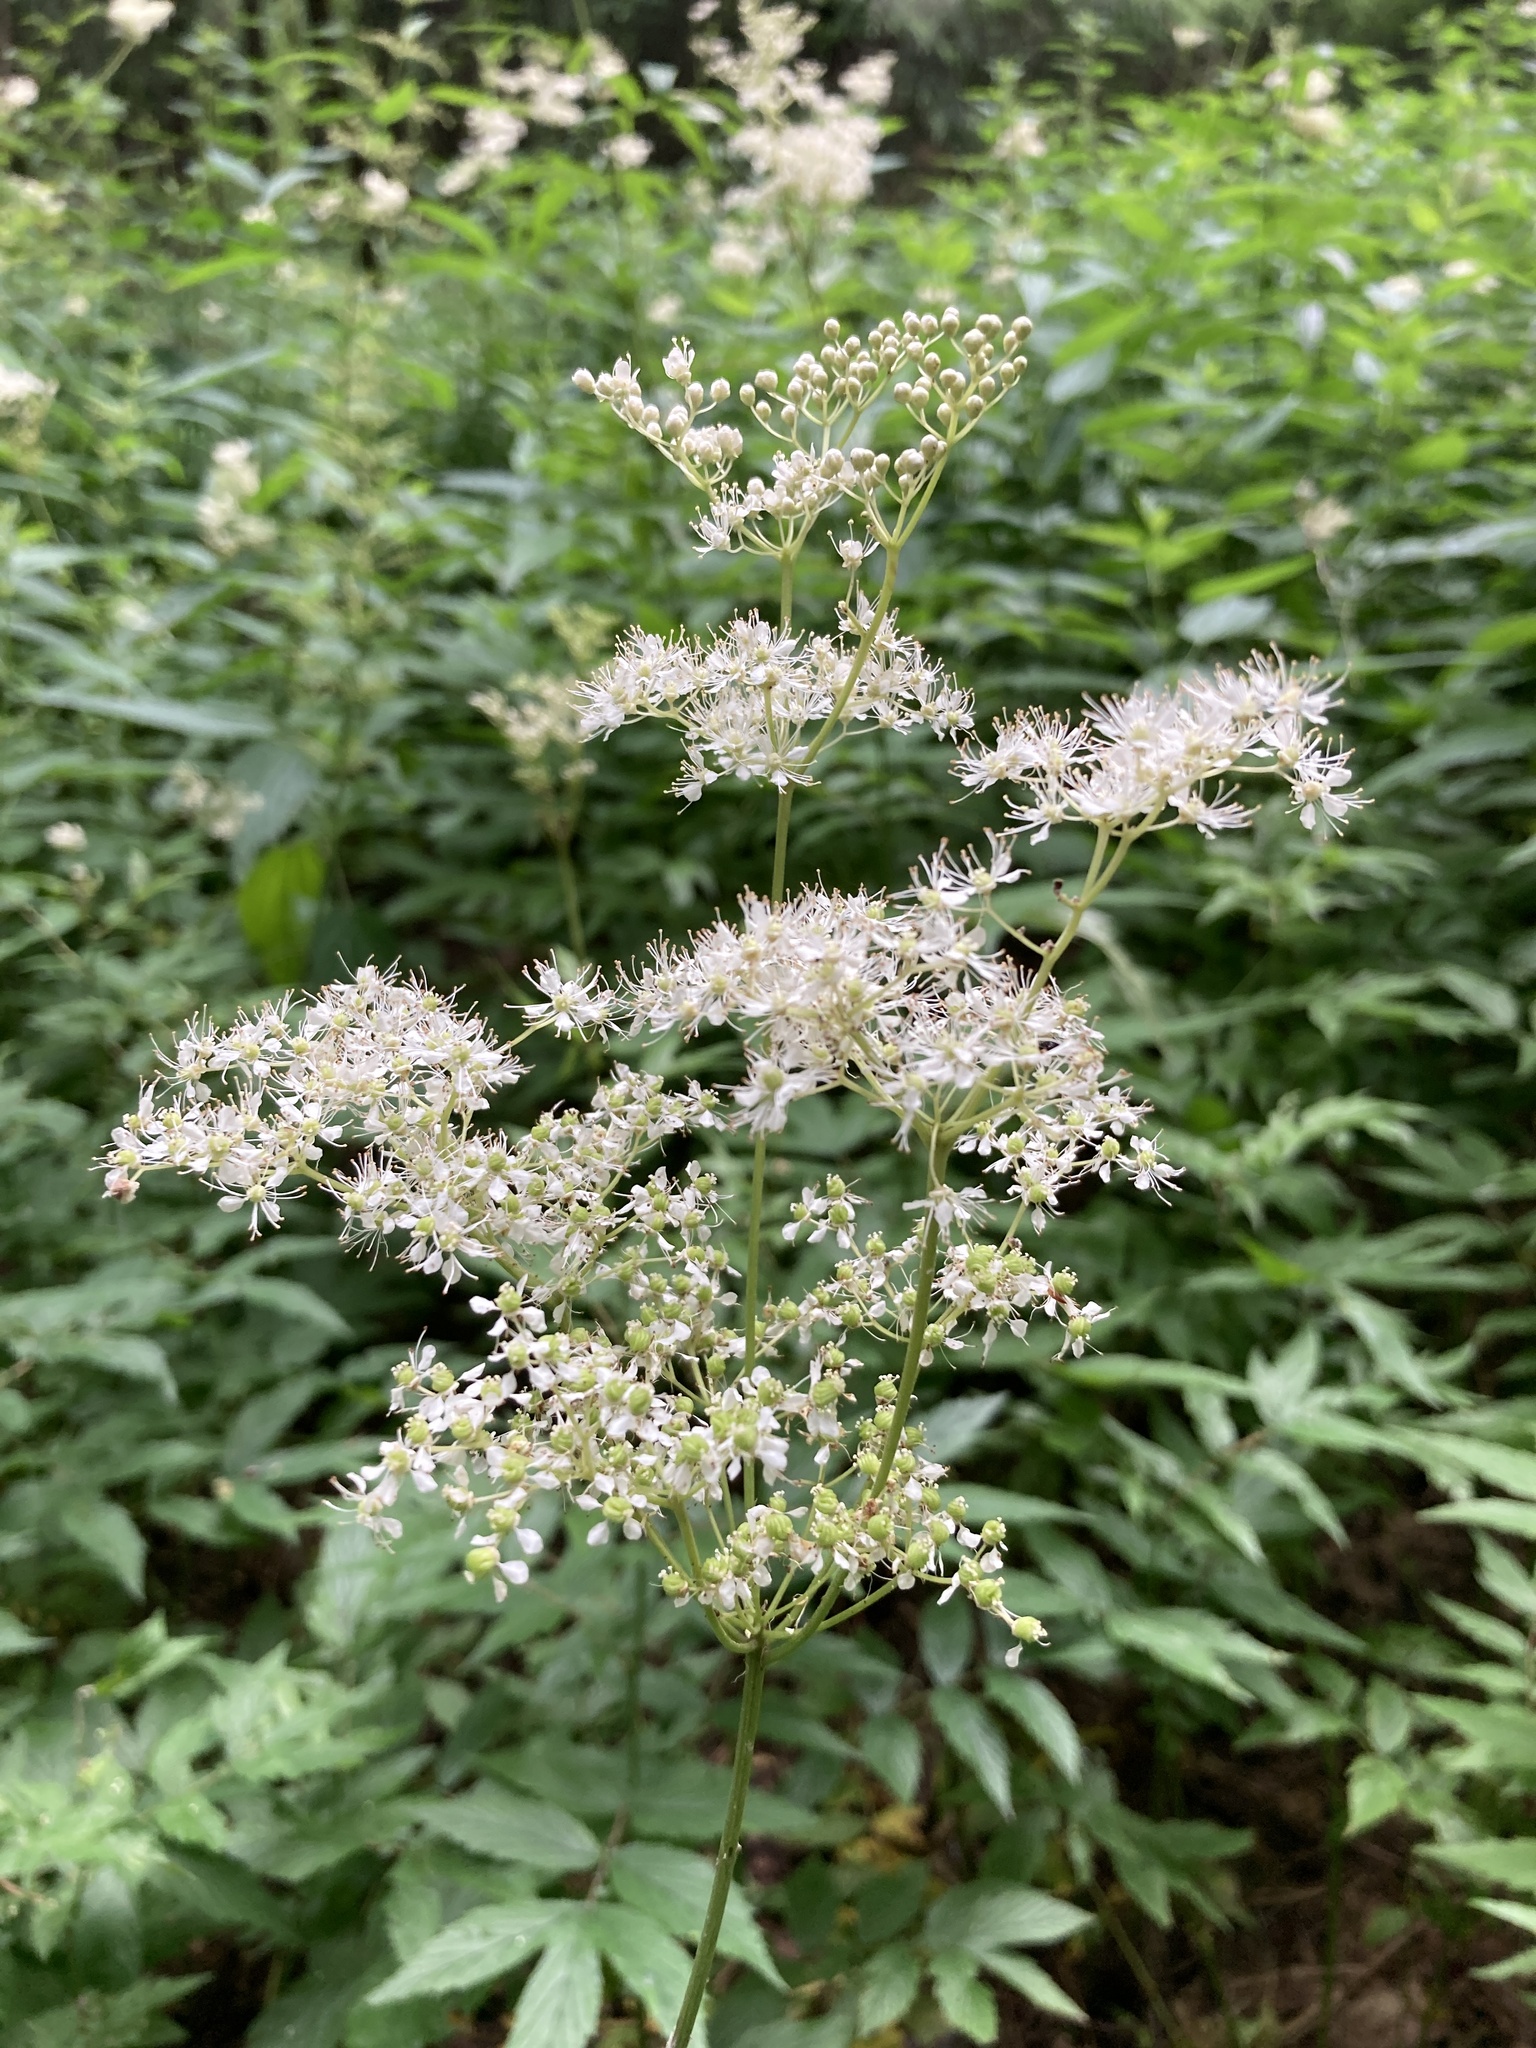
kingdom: Plantae
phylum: Tracheophyta
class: Magnoliopsida
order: Rosales
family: Rosaceae
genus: Filipendula
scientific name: Filipendula ulmaria
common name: Meadowsweet
